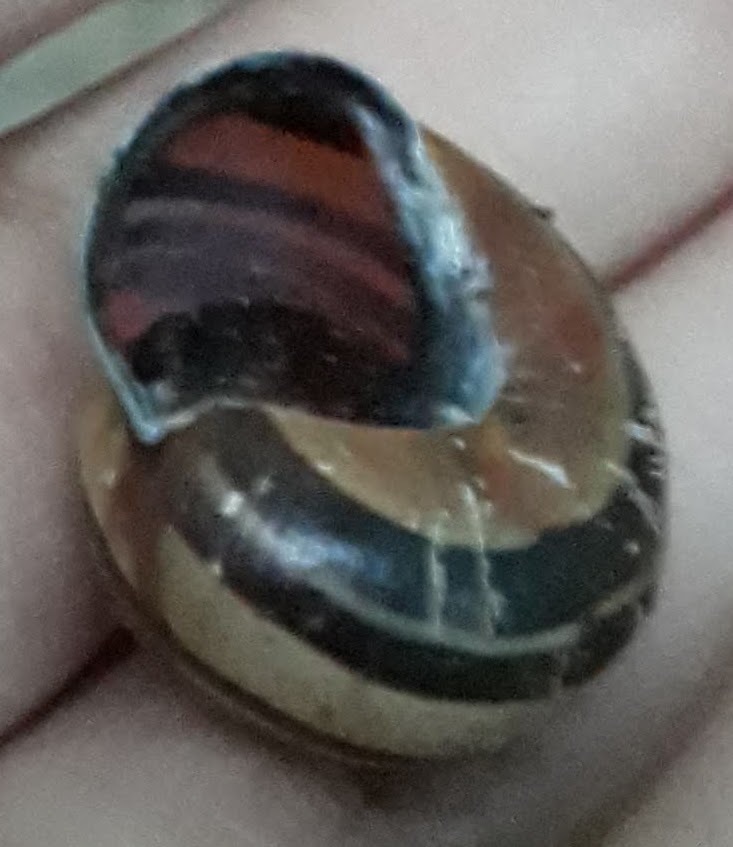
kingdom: Animalia
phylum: Mollusca
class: Gastropoda
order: Stylommatophora
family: Helicidae
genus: Cepaea
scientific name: Cepaea nemoralis
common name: Grovesnail
